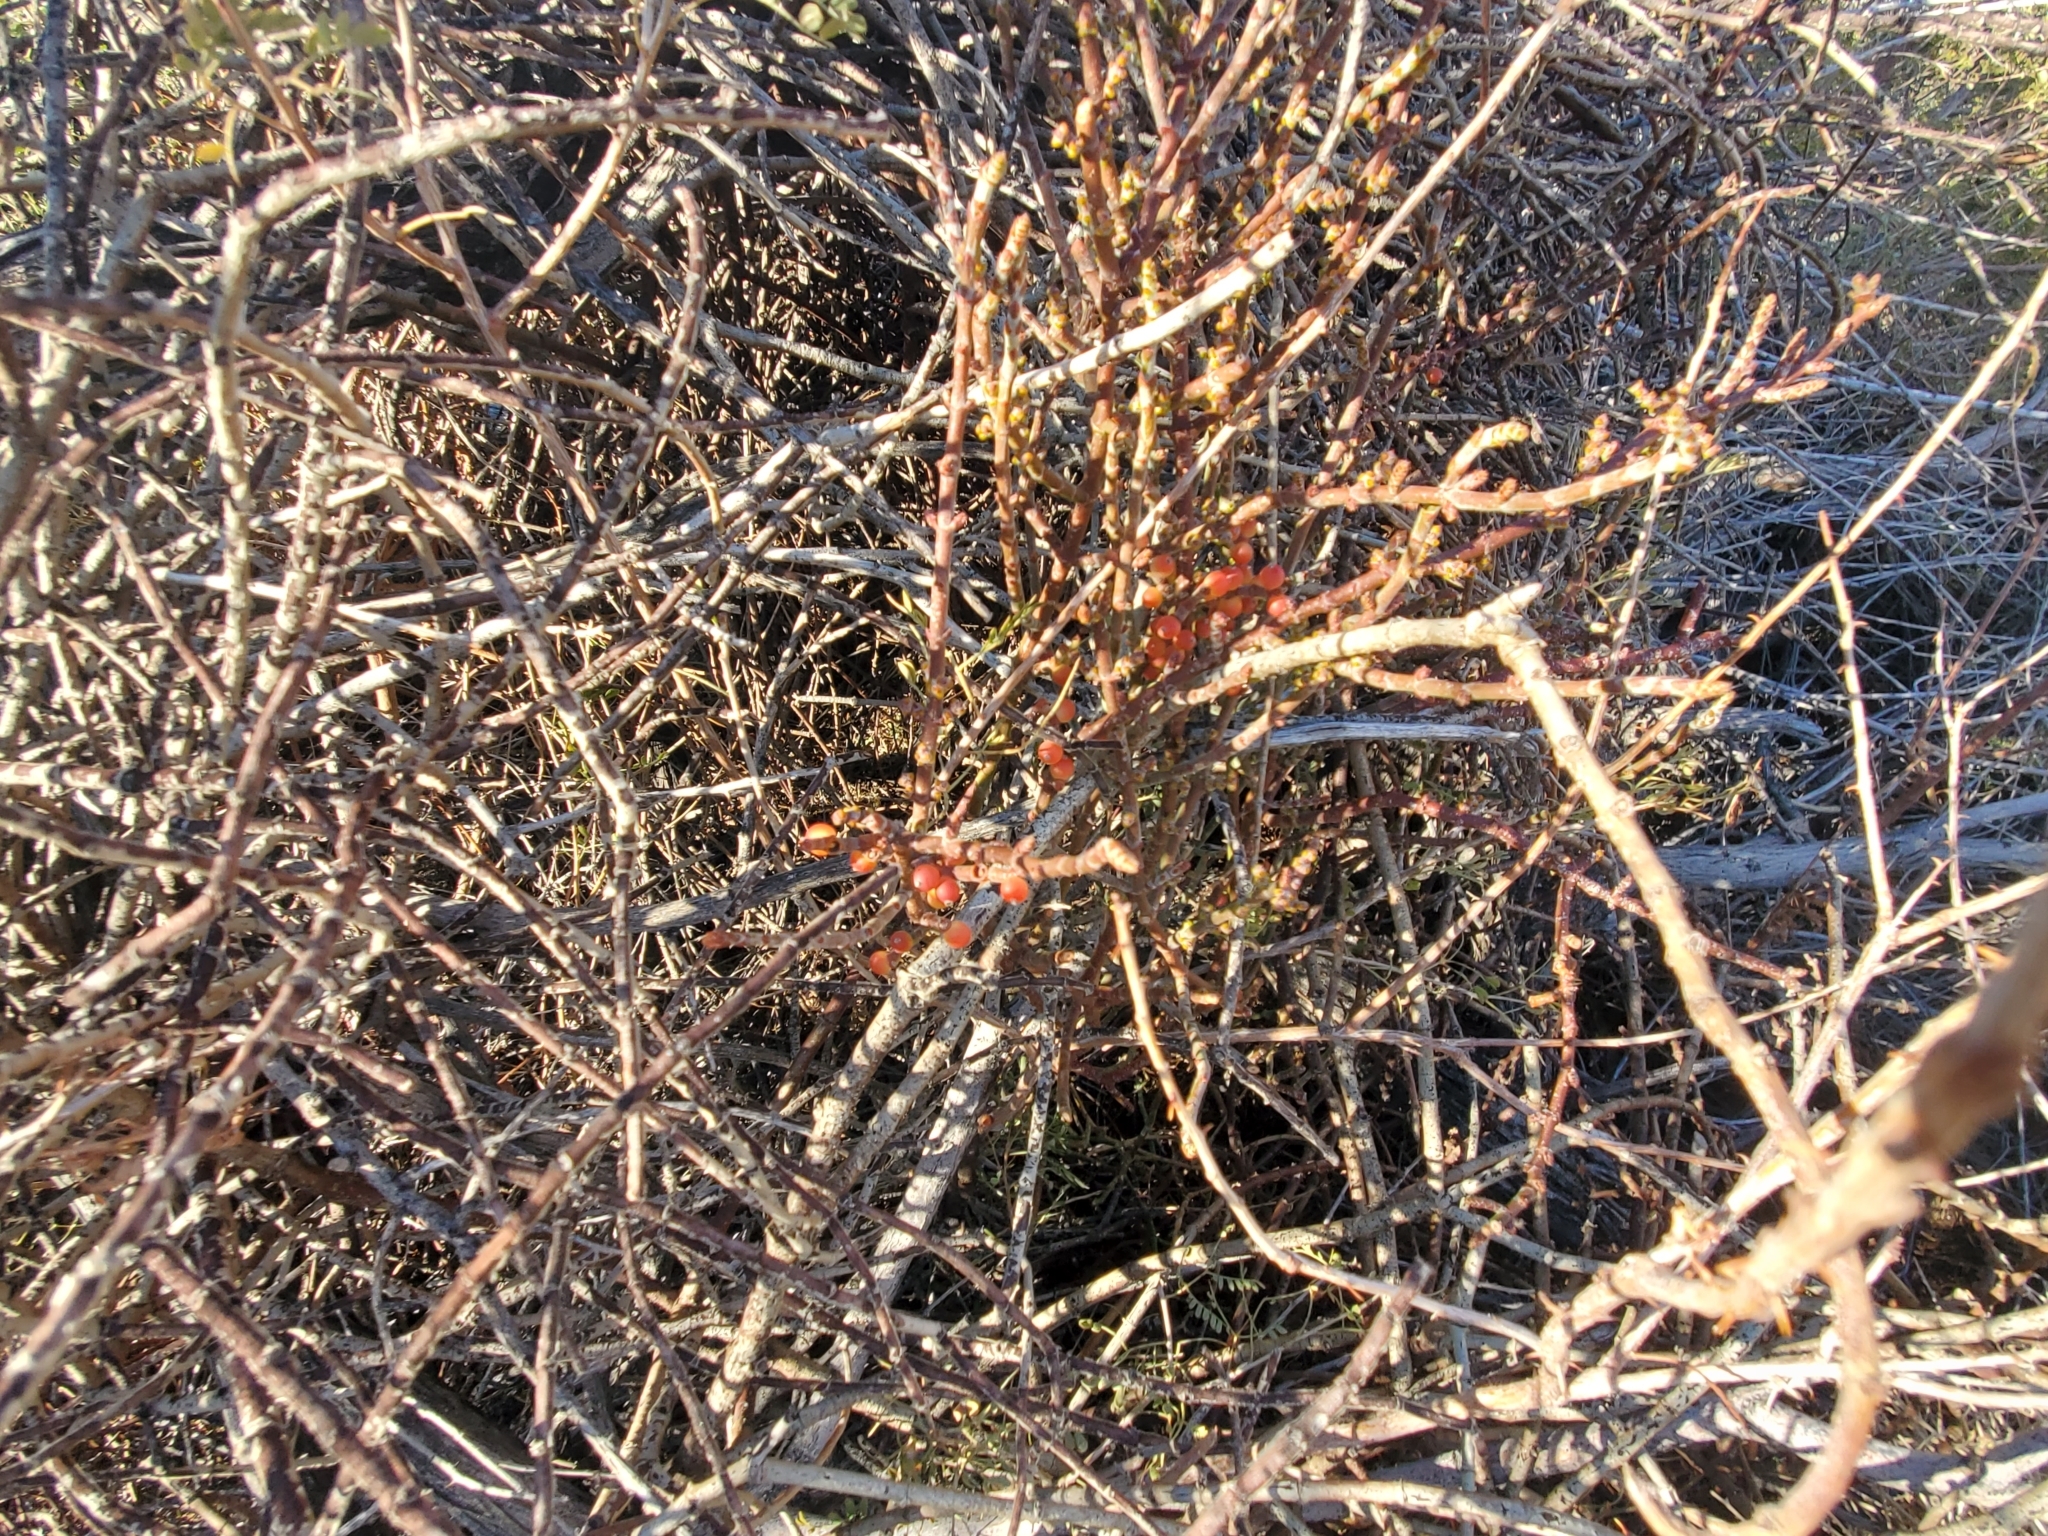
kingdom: Plantae
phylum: Tracheophyta
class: Magnoliopsida
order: Santalales
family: Viscaceae
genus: Phoradendron
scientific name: Phoradendron californicum
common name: Acacia mistletoe
